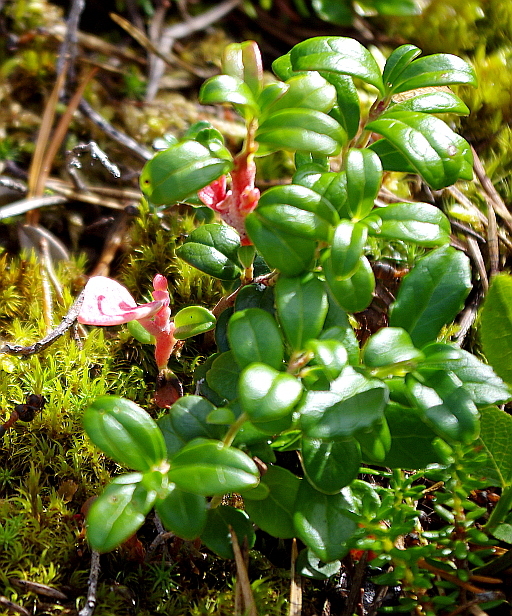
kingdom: Plantae
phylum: Tracheophyta
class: Magnoliopsida
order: Ericales
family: Ericaceae
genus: Vaccinium
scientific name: Vaccinium vitis-idaea
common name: Cowberry
